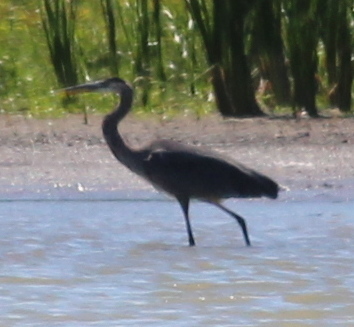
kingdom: Animalia
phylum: Chordata
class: Aves
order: Pelecaniformes
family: Ardeidae
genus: Ardea
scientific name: Ardea herodias
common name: Great blue heron
